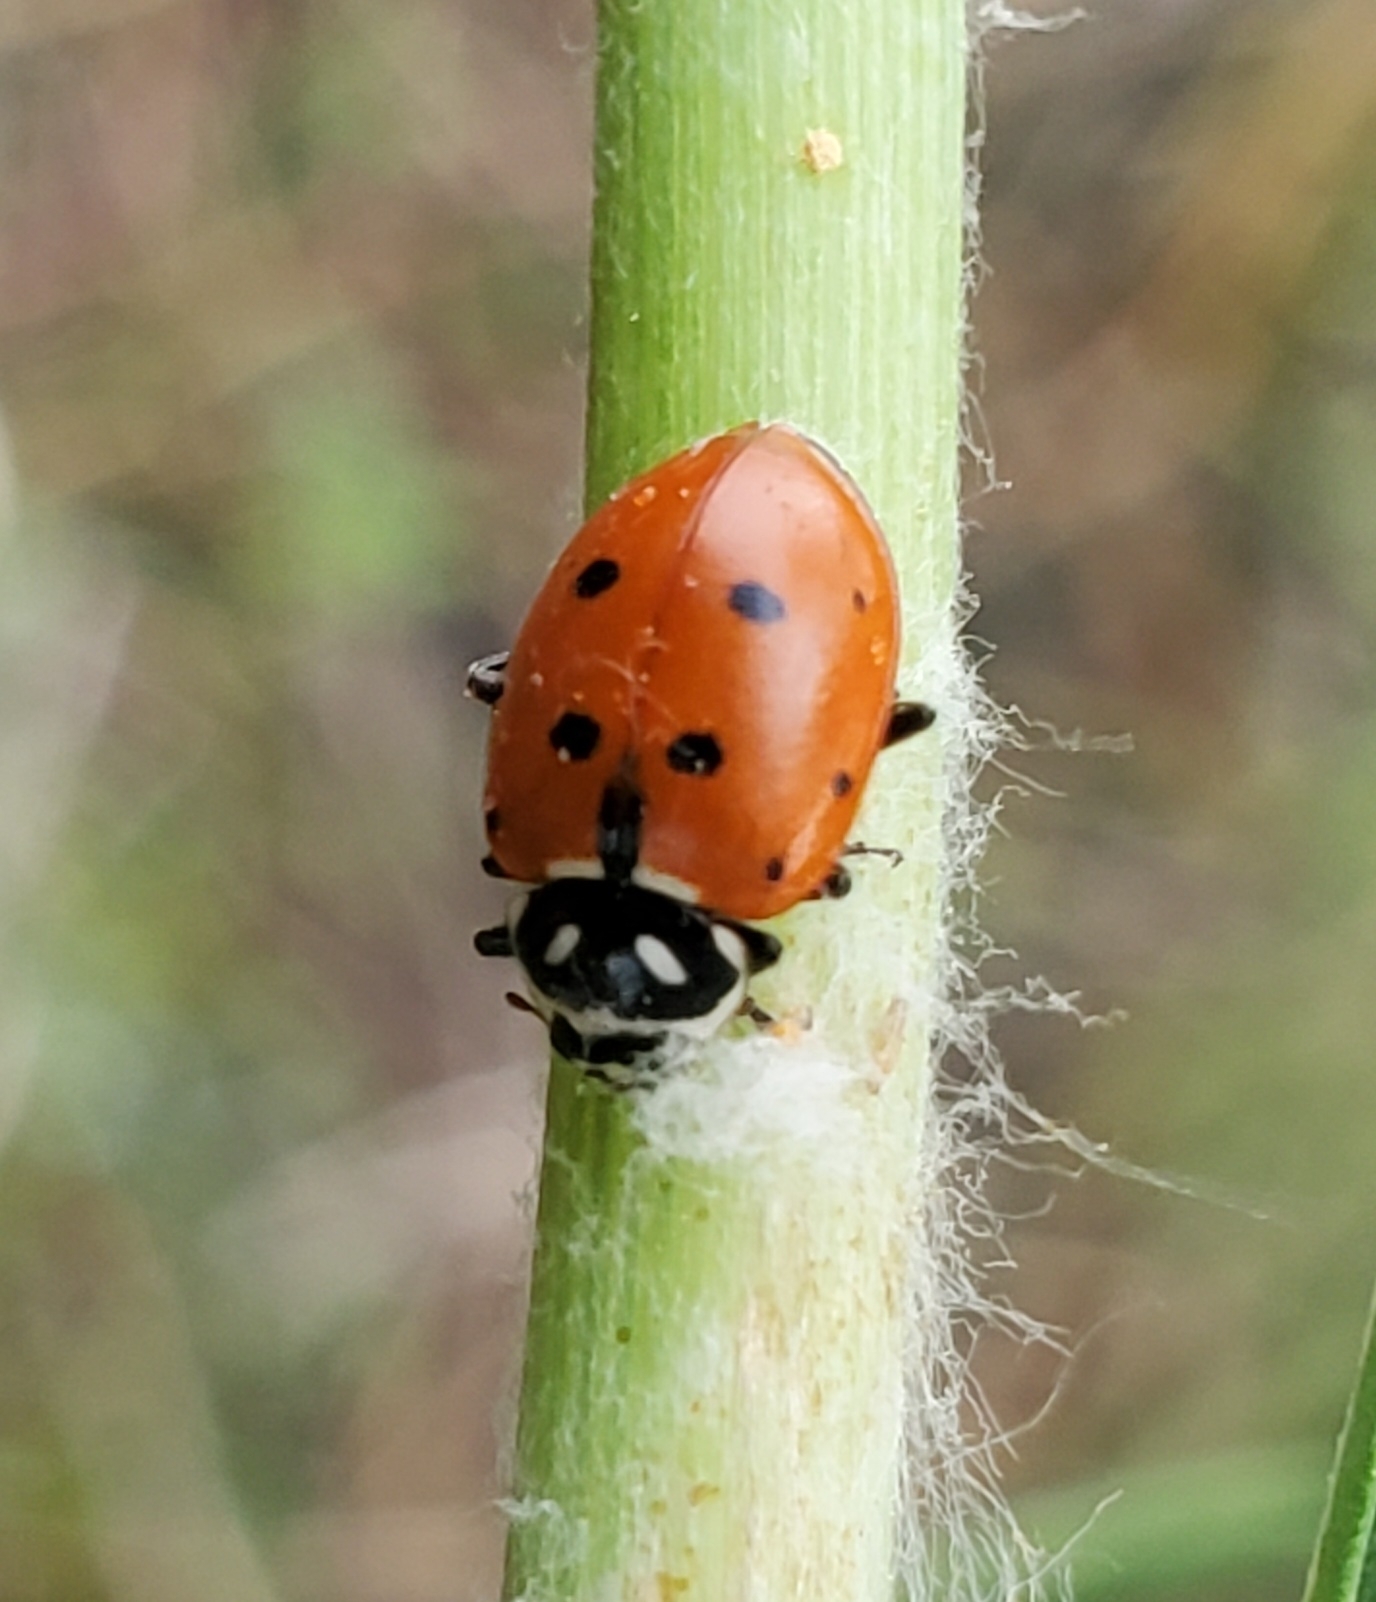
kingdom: Animalia
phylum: Arthropoda
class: Insecta
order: Coleoptera
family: Coccinellidae
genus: Hippodamia
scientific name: Hippodamia convergens
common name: Convergent lady beetle
